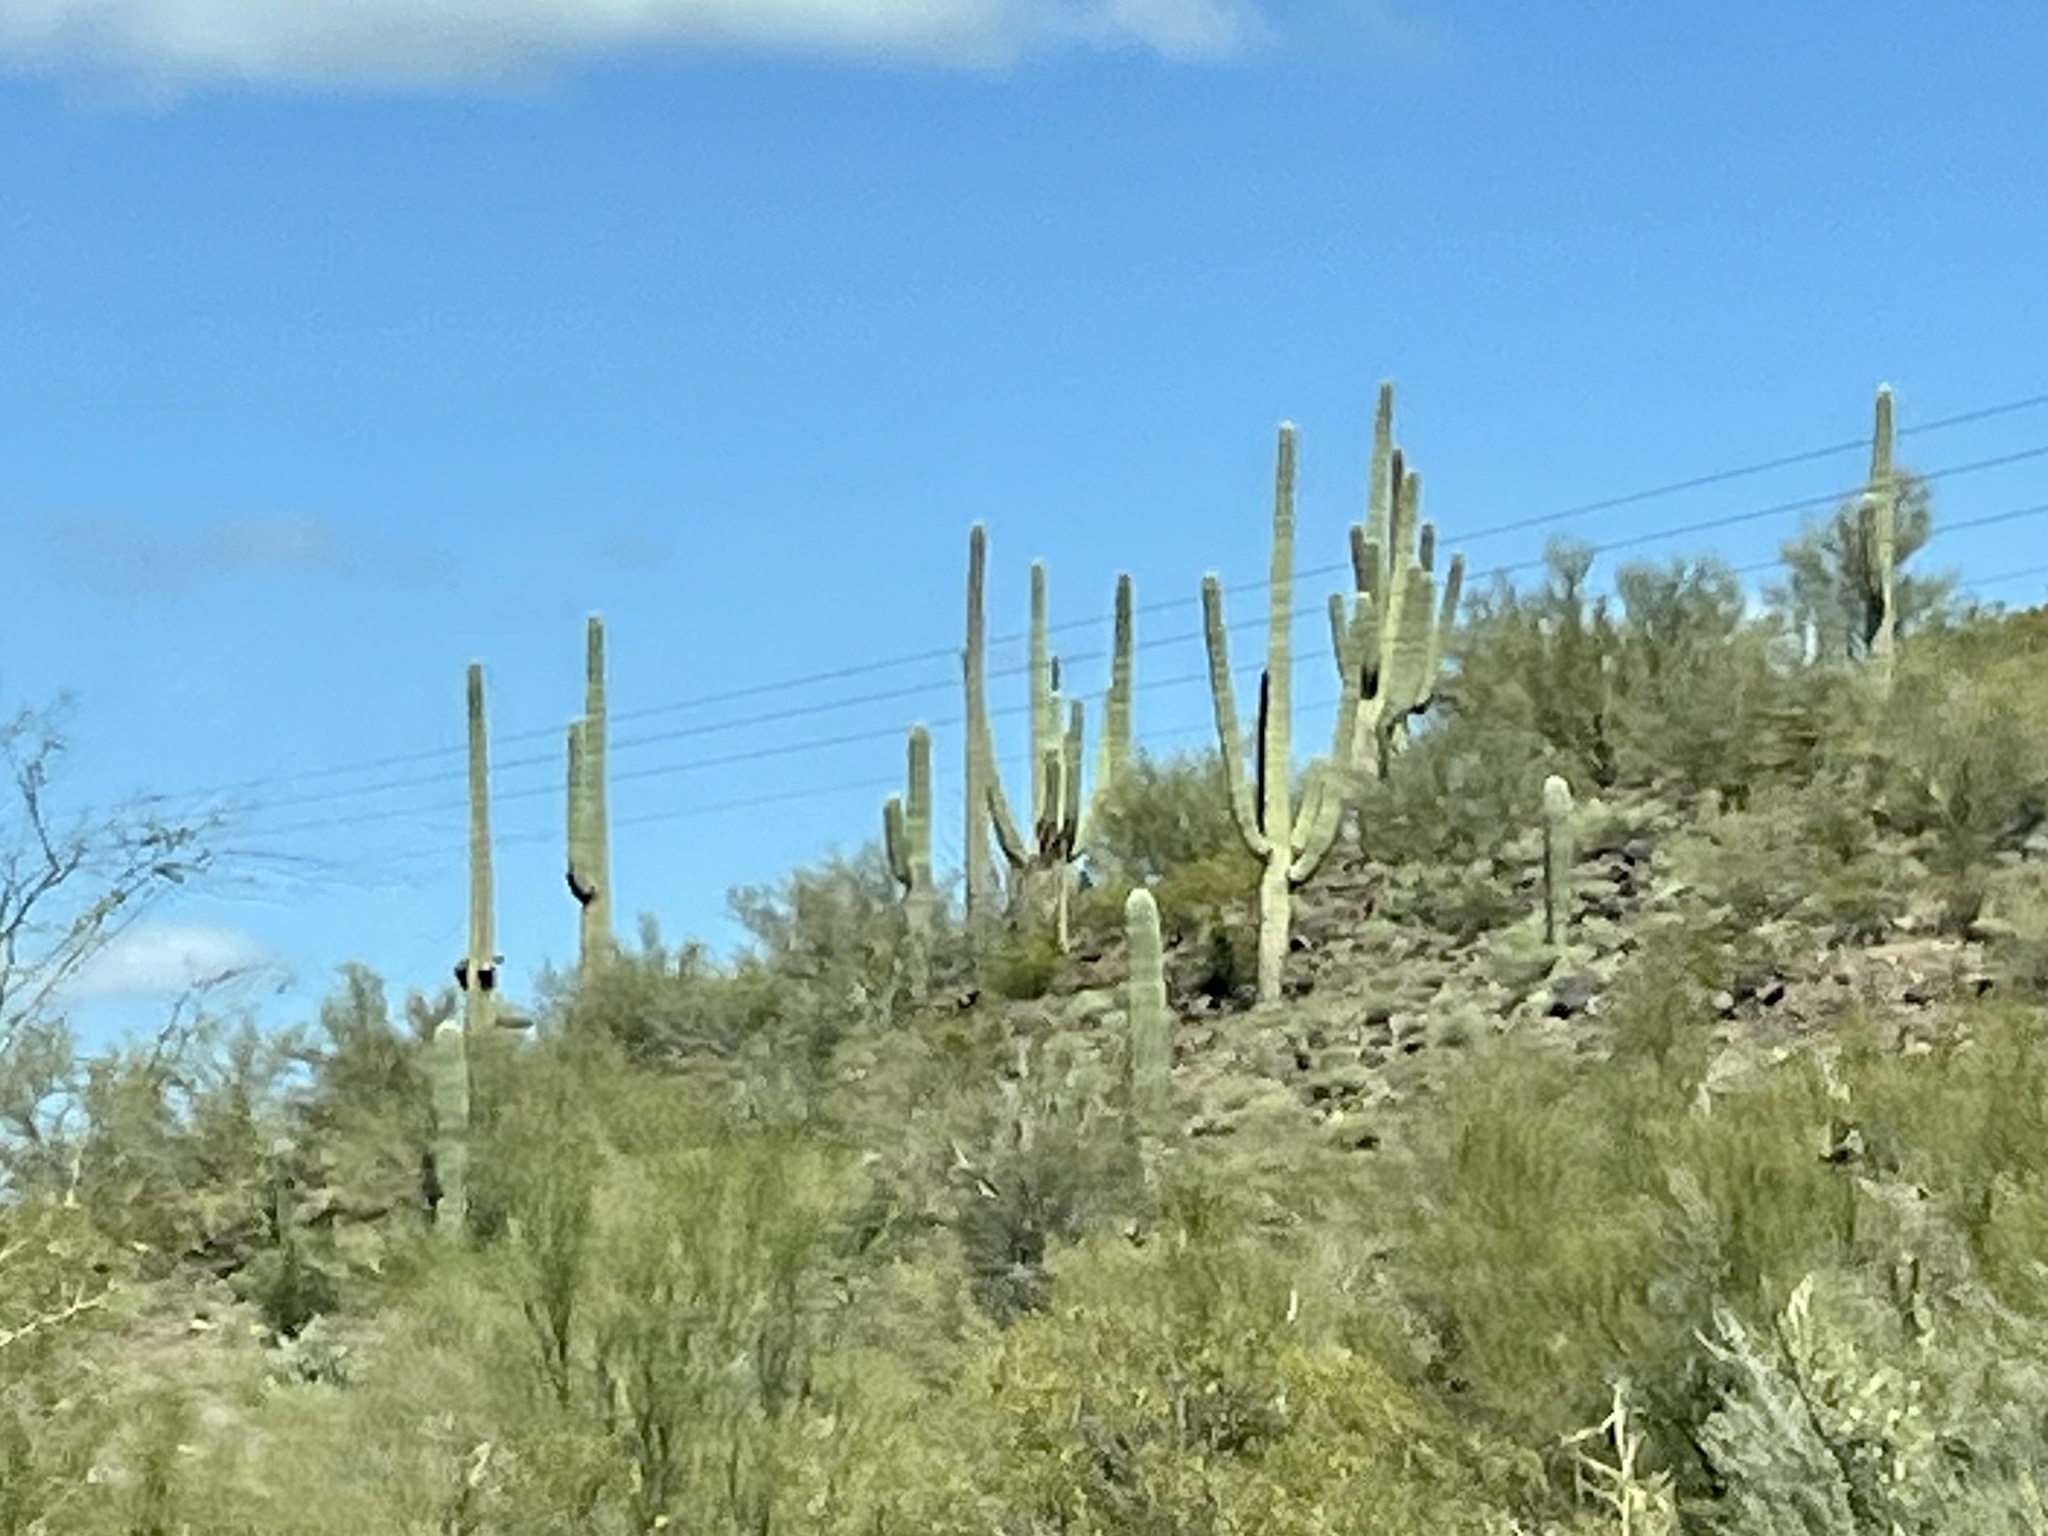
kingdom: Plantae
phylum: Tracheophyta
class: Magnoliopsida
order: Caryophyllales
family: Cactaceae
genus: Carnegiea
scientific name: Carnegiea gigantea
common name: Saguaro
